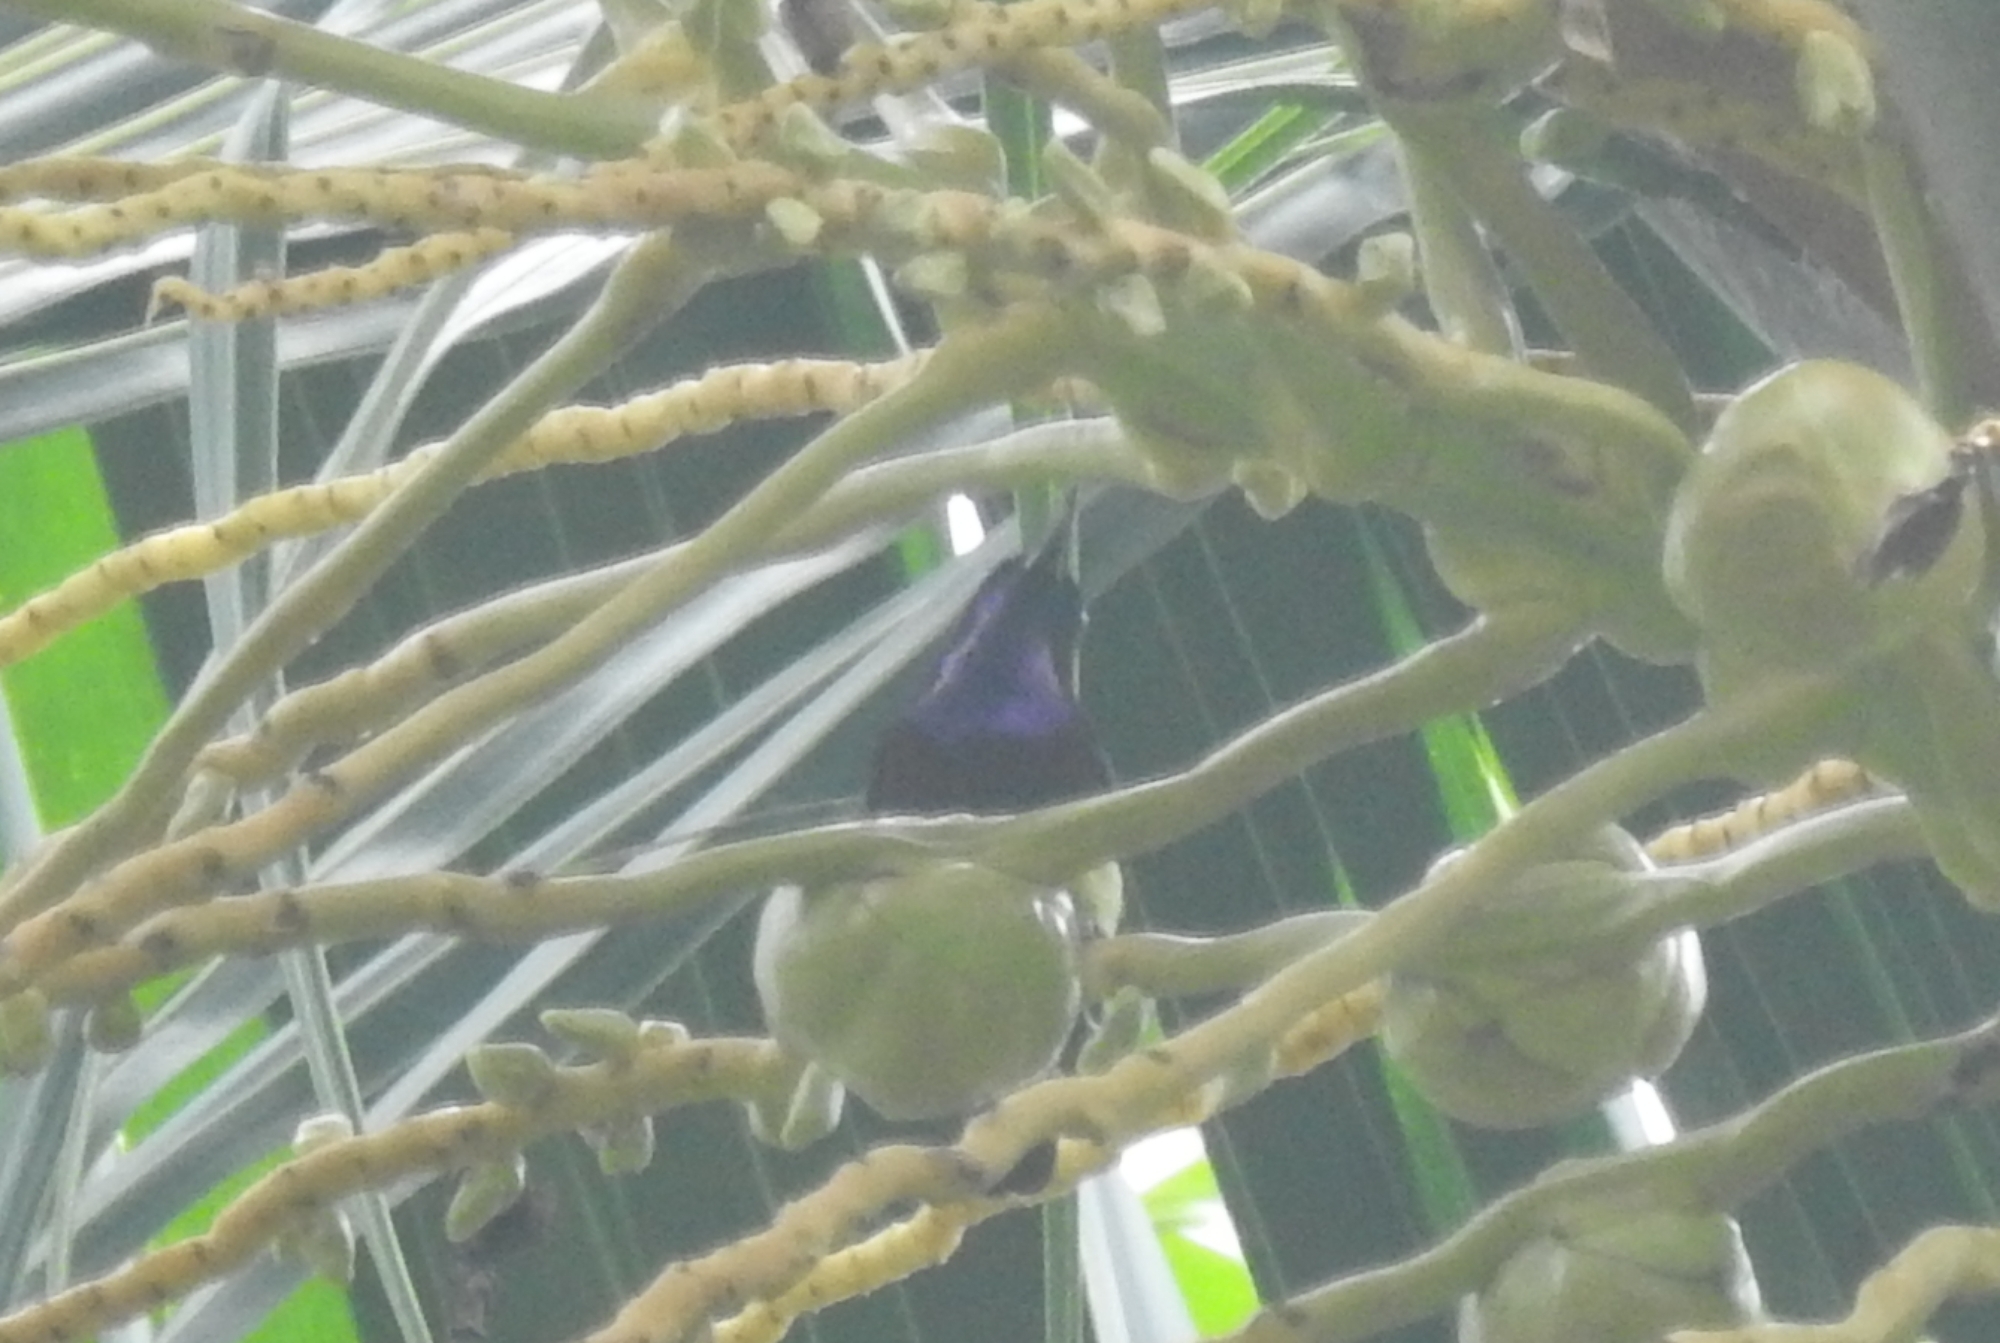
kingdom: Animalia
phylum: Chordata
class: Aves
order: Passeriformes
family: Muscicapidae
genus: Copsychus
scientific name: Copsychus saularis
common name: Oriental magpie-robin
